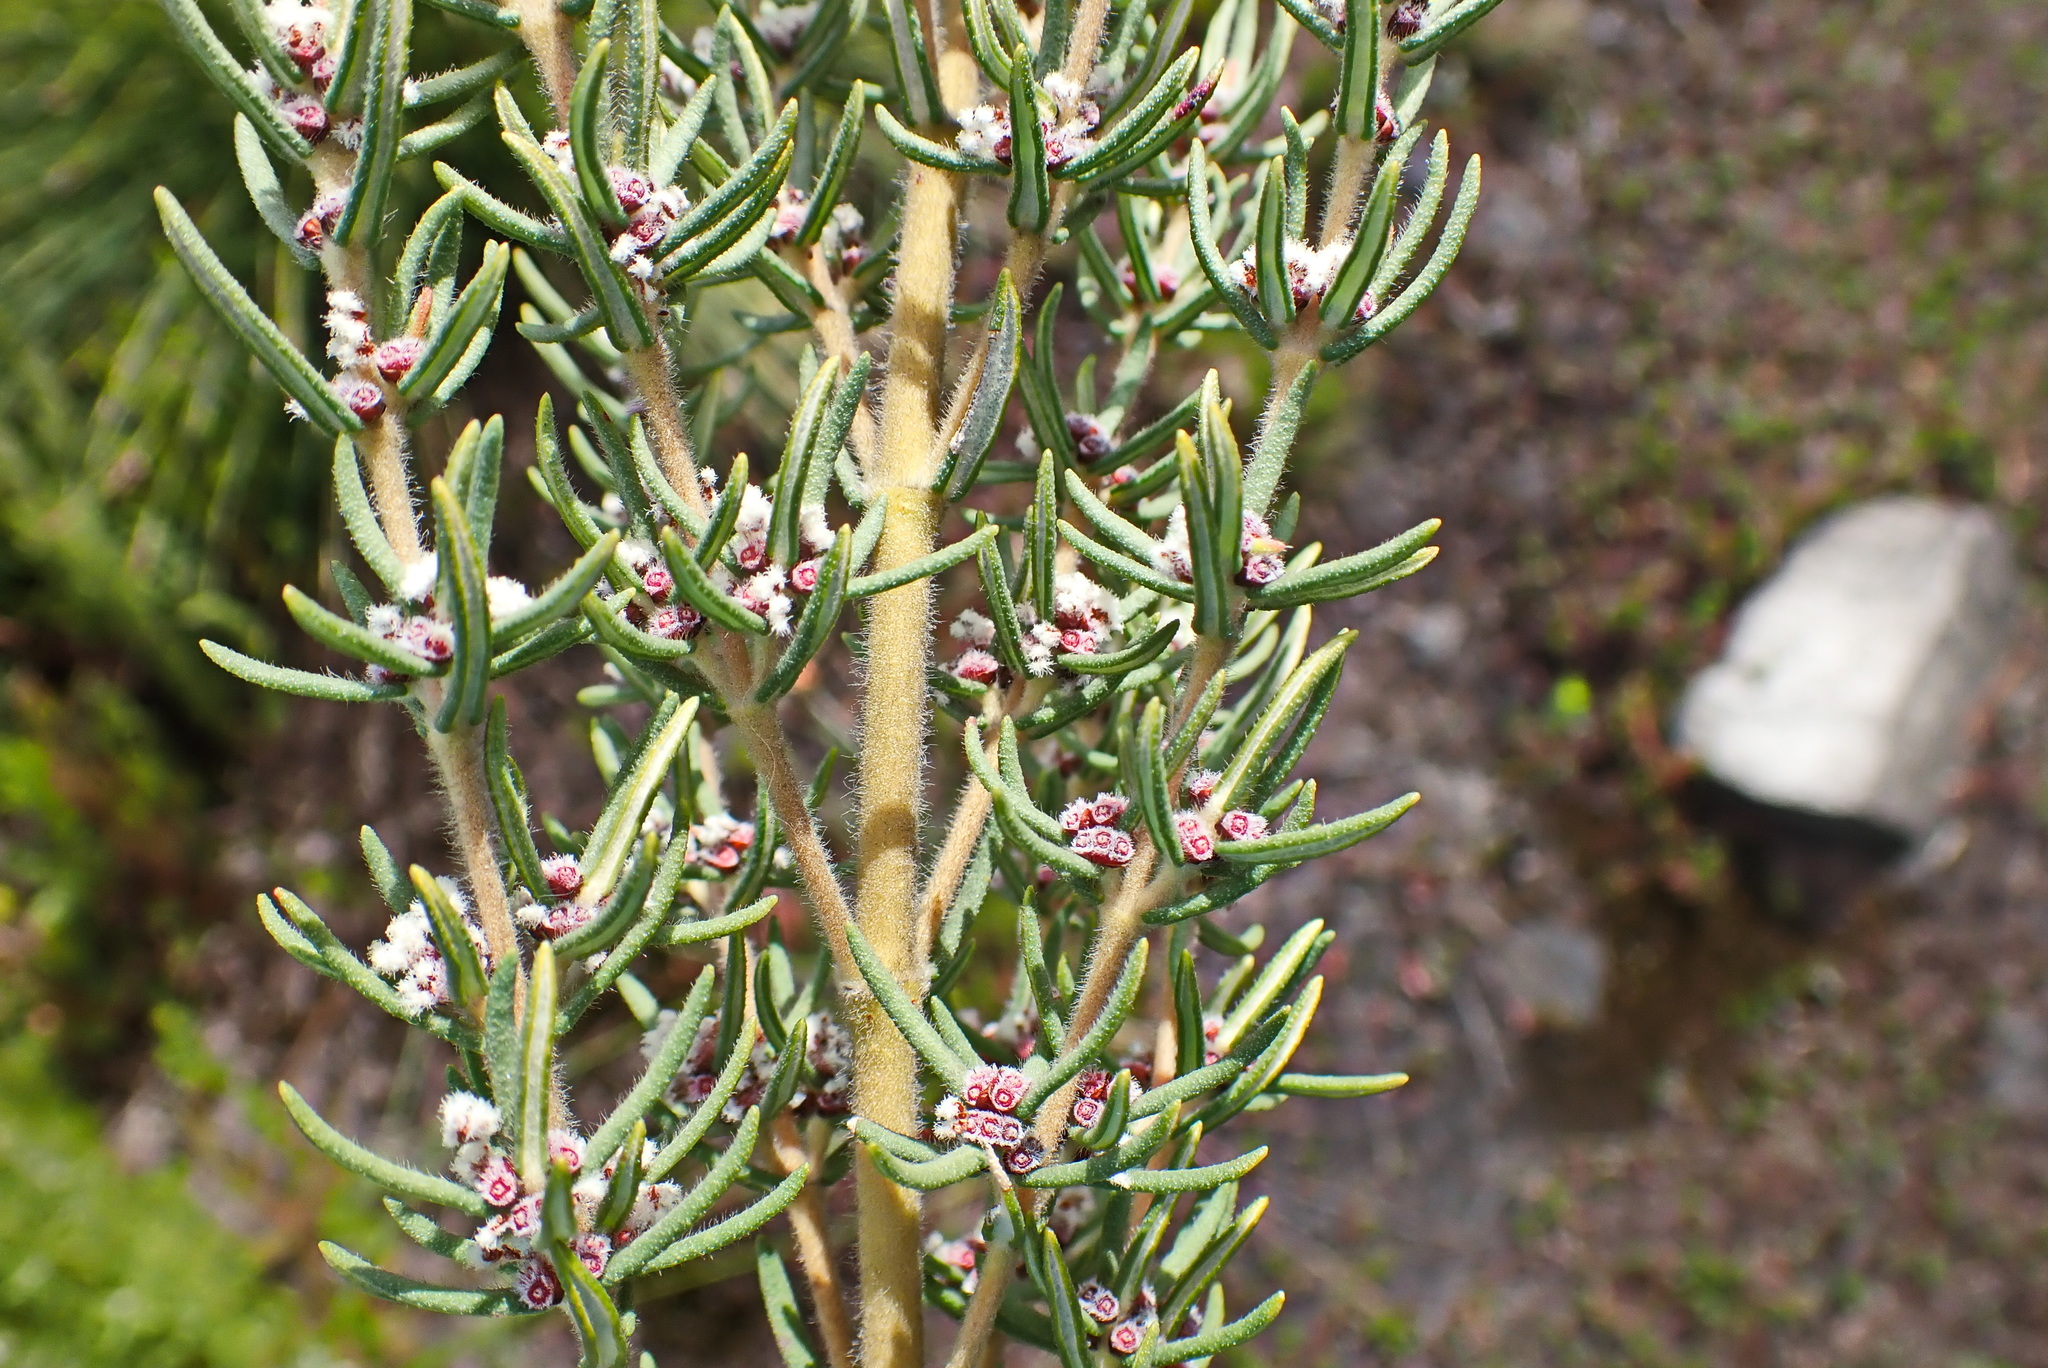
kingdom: Plantae
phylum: Tracheophyta
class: Magnoliopsida
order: Cornales
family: Grubbiaceae
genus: Grubbia
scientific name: Grubbia rosmarinifolia
